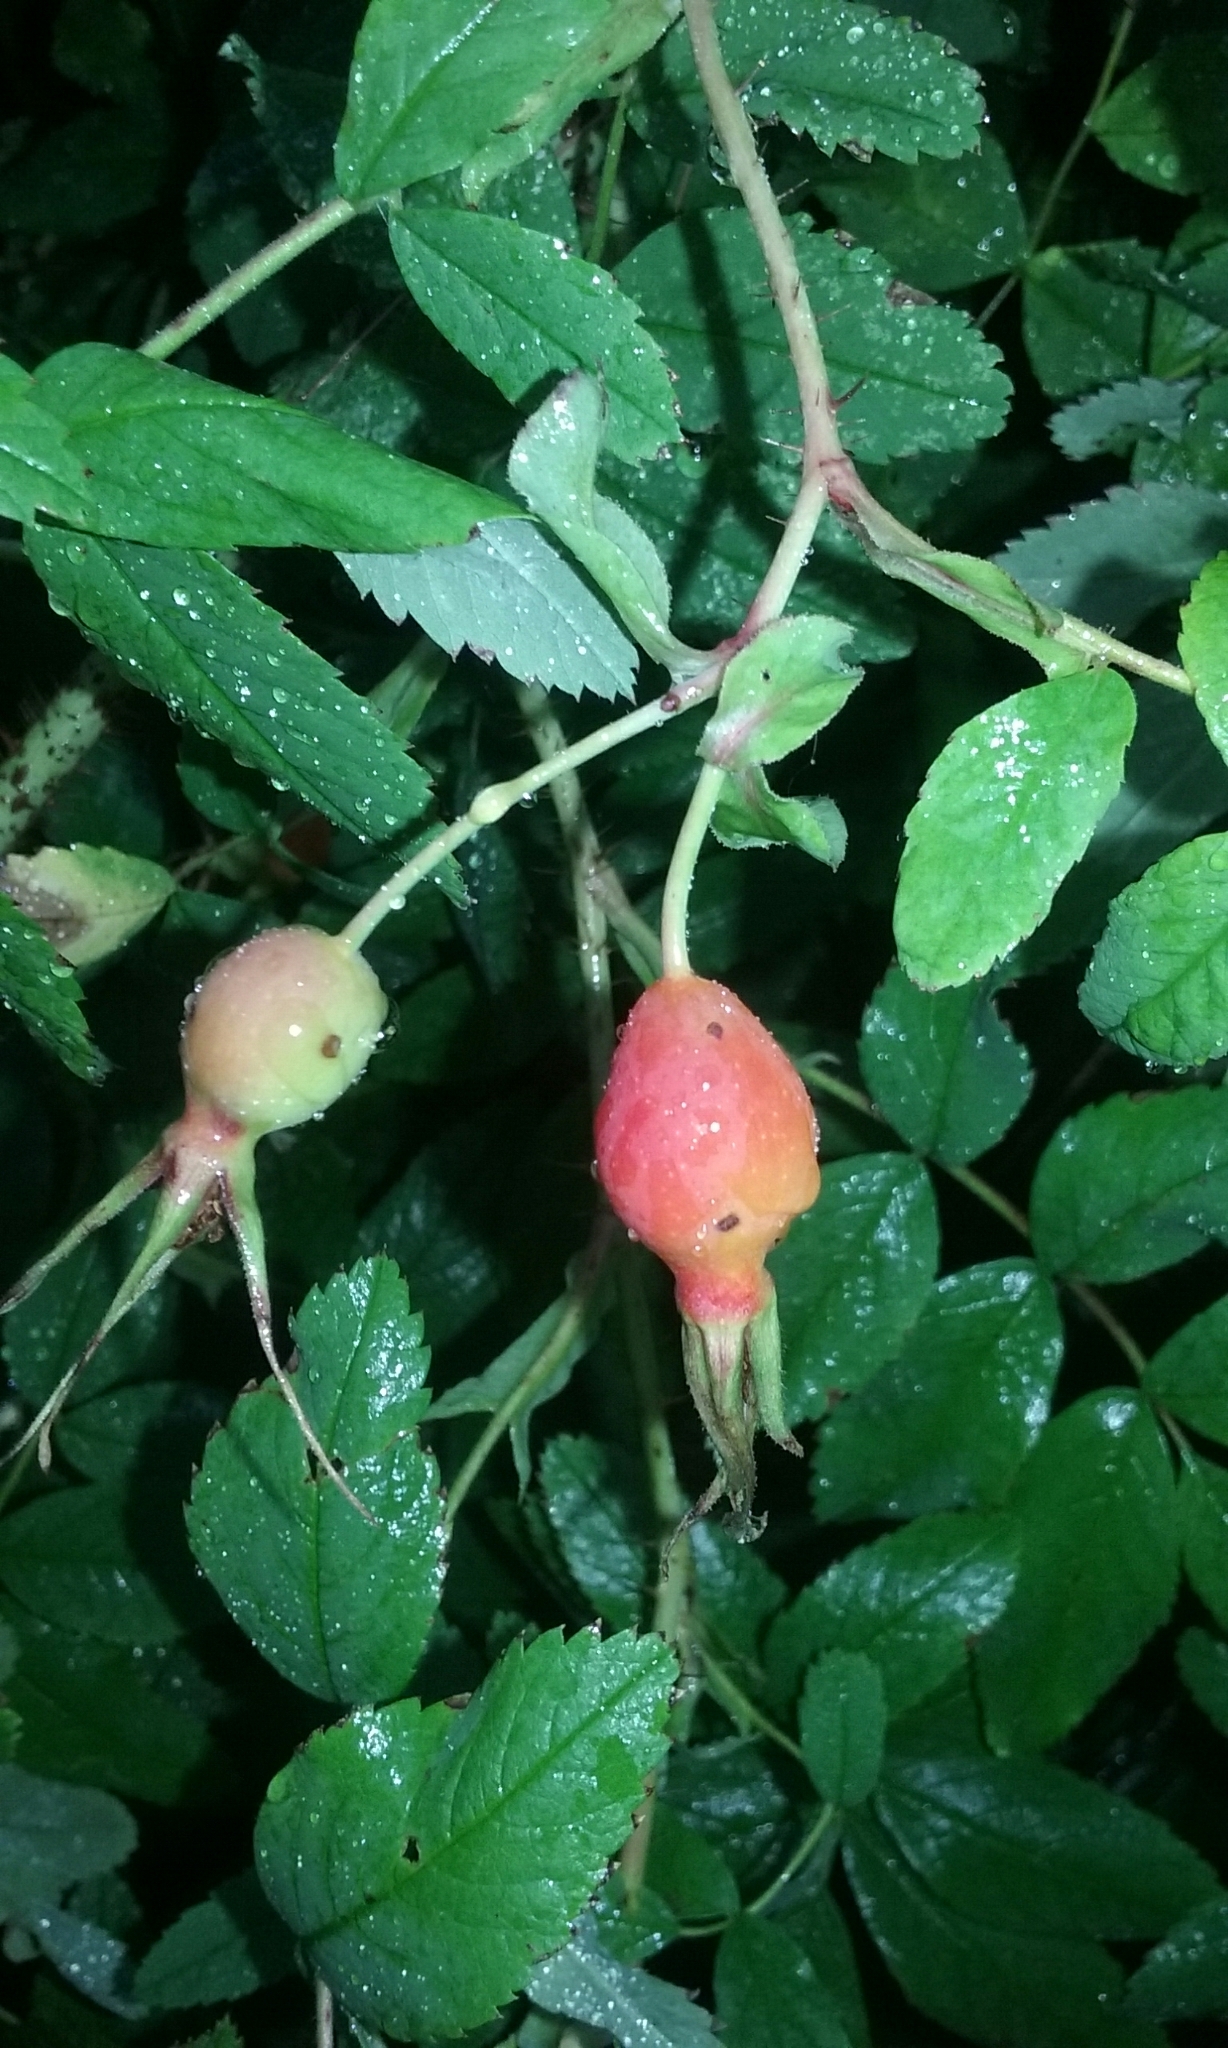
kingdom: Plantae
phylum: Tracheophyta
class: Magnoliopsida
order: Rosales
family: Rosaceae
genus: Rosa
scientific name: Rosa acicularis
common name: Prickly rose
